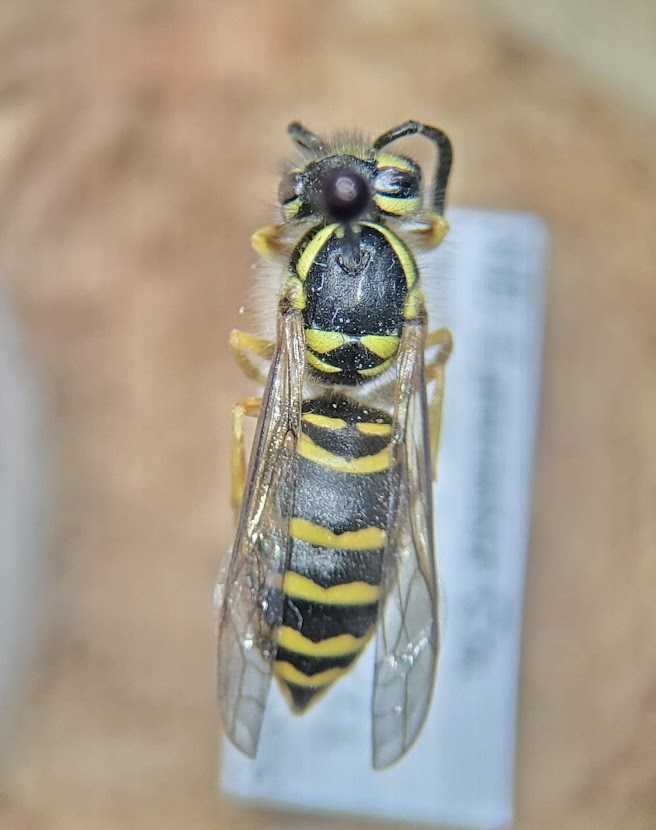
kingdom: Animalia
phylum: Arthropoda
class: Insecta
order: Hymenoptera
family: Vespidae
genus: Vespula
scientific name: Vespula maculifrons
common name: Eastern yellowjacket
